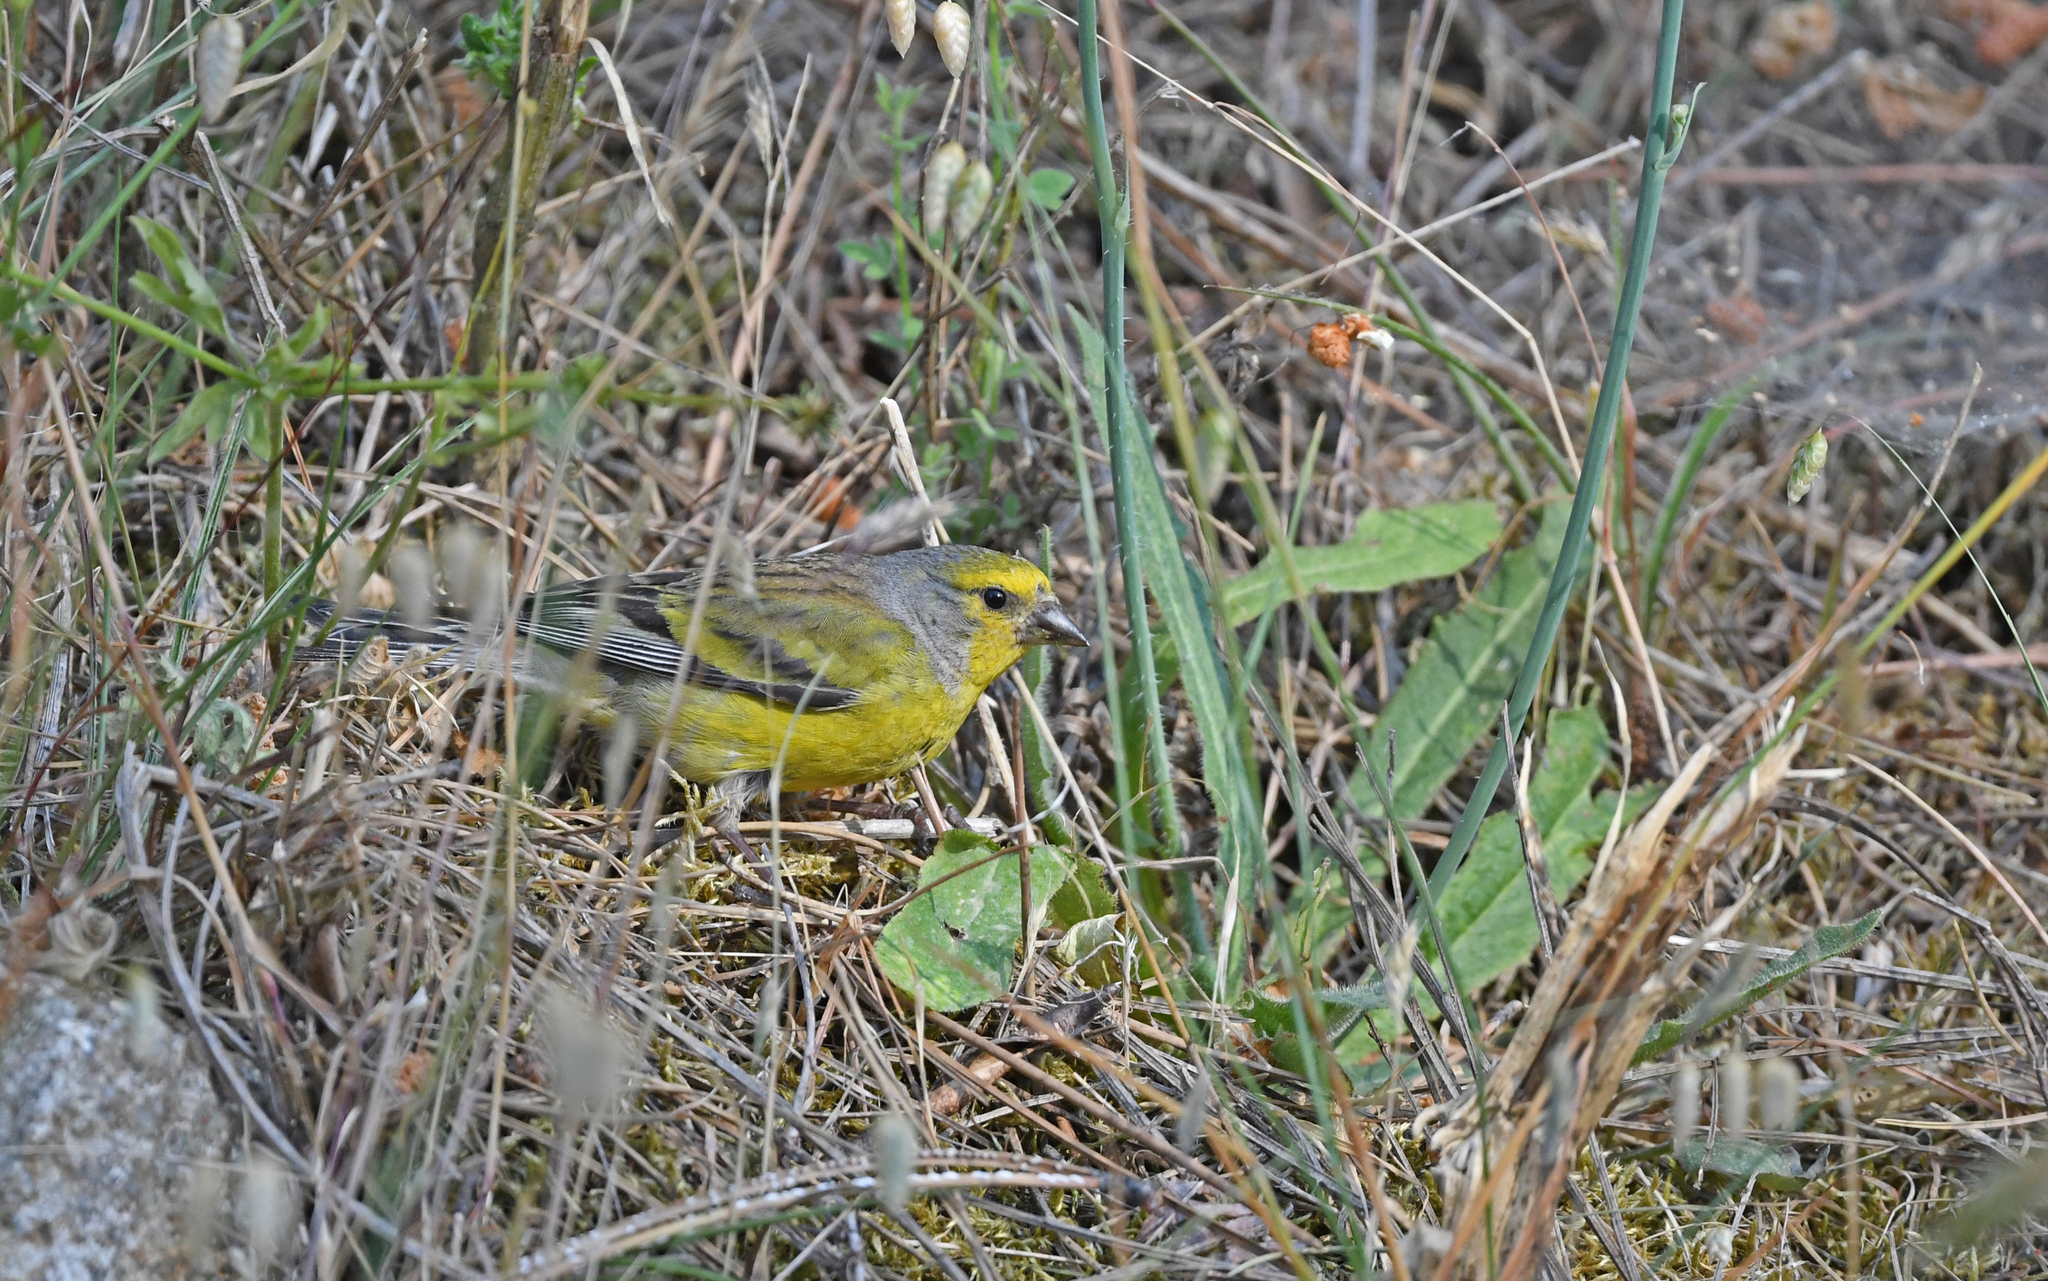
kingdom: Animalia
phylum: Chordata
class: Aves
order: Passeriformes
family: Fringillidae
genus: Carduelis
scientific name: Carduelis corsicana
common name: Corsican finch
